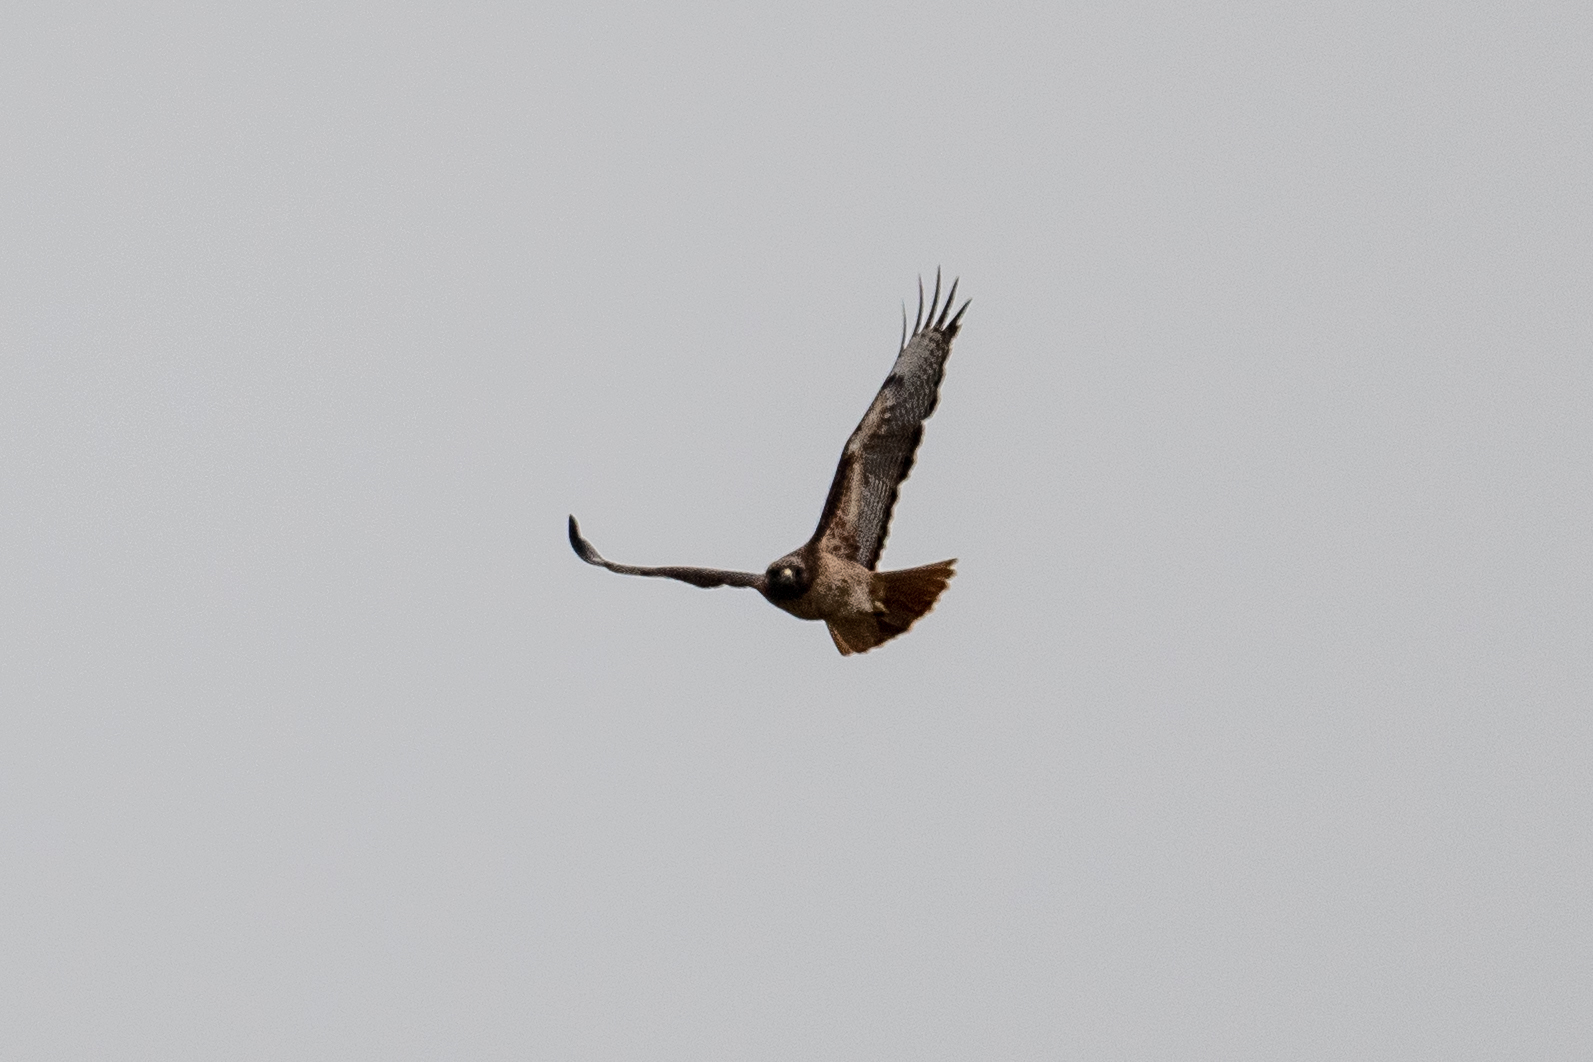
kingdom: Animalia
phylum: Chordata
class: Aves
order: Accipitriformes
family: Accipitridae
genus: Buteo
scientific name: Buteo jamaicensis
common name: Red-tailed hawk
